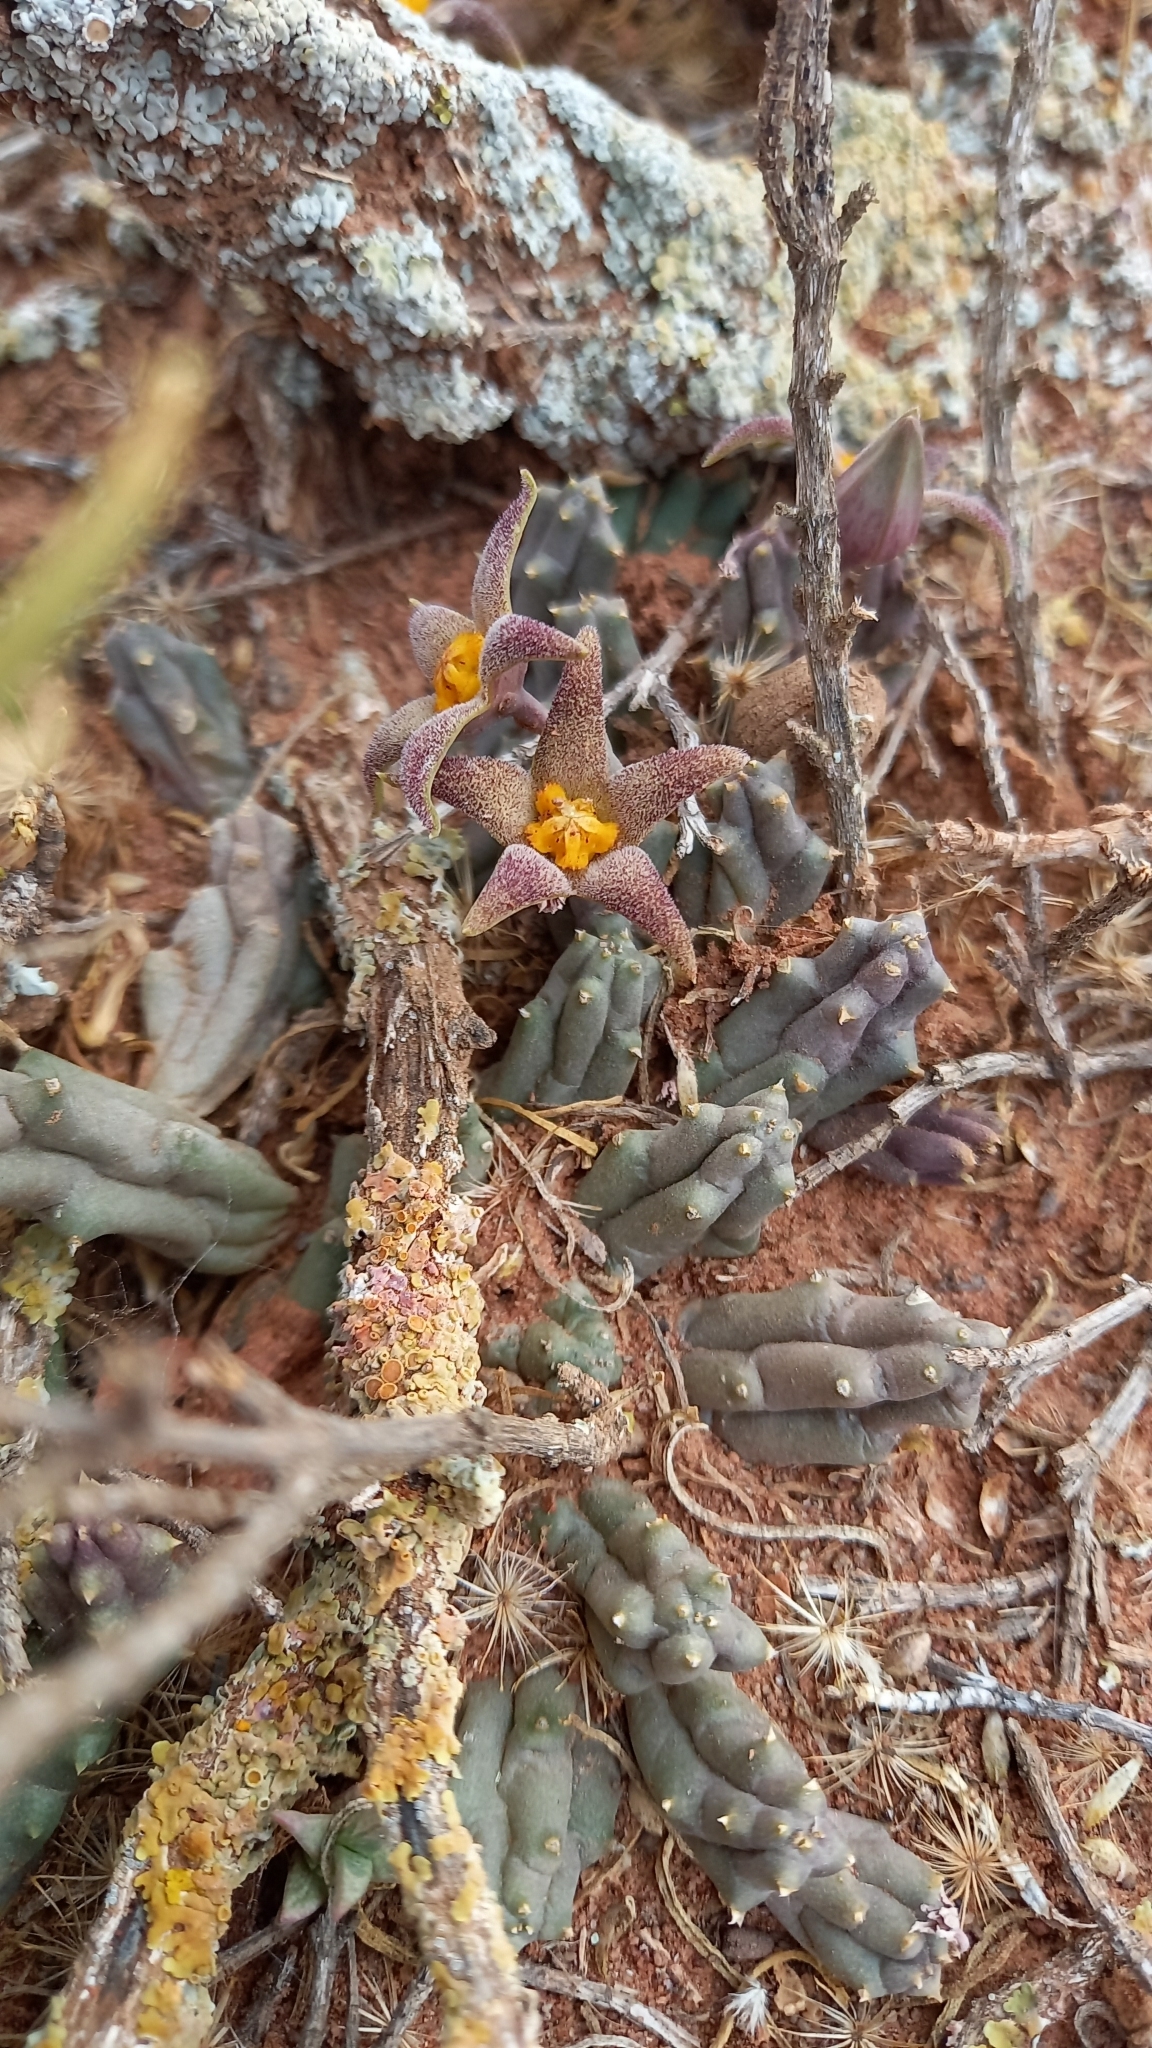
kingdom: Plantae
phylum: Tracheophyta
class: Magnoliopsida
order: Gentianales
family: Apocynaceae
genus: Ceropegia
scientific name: Ceropegia geminata
